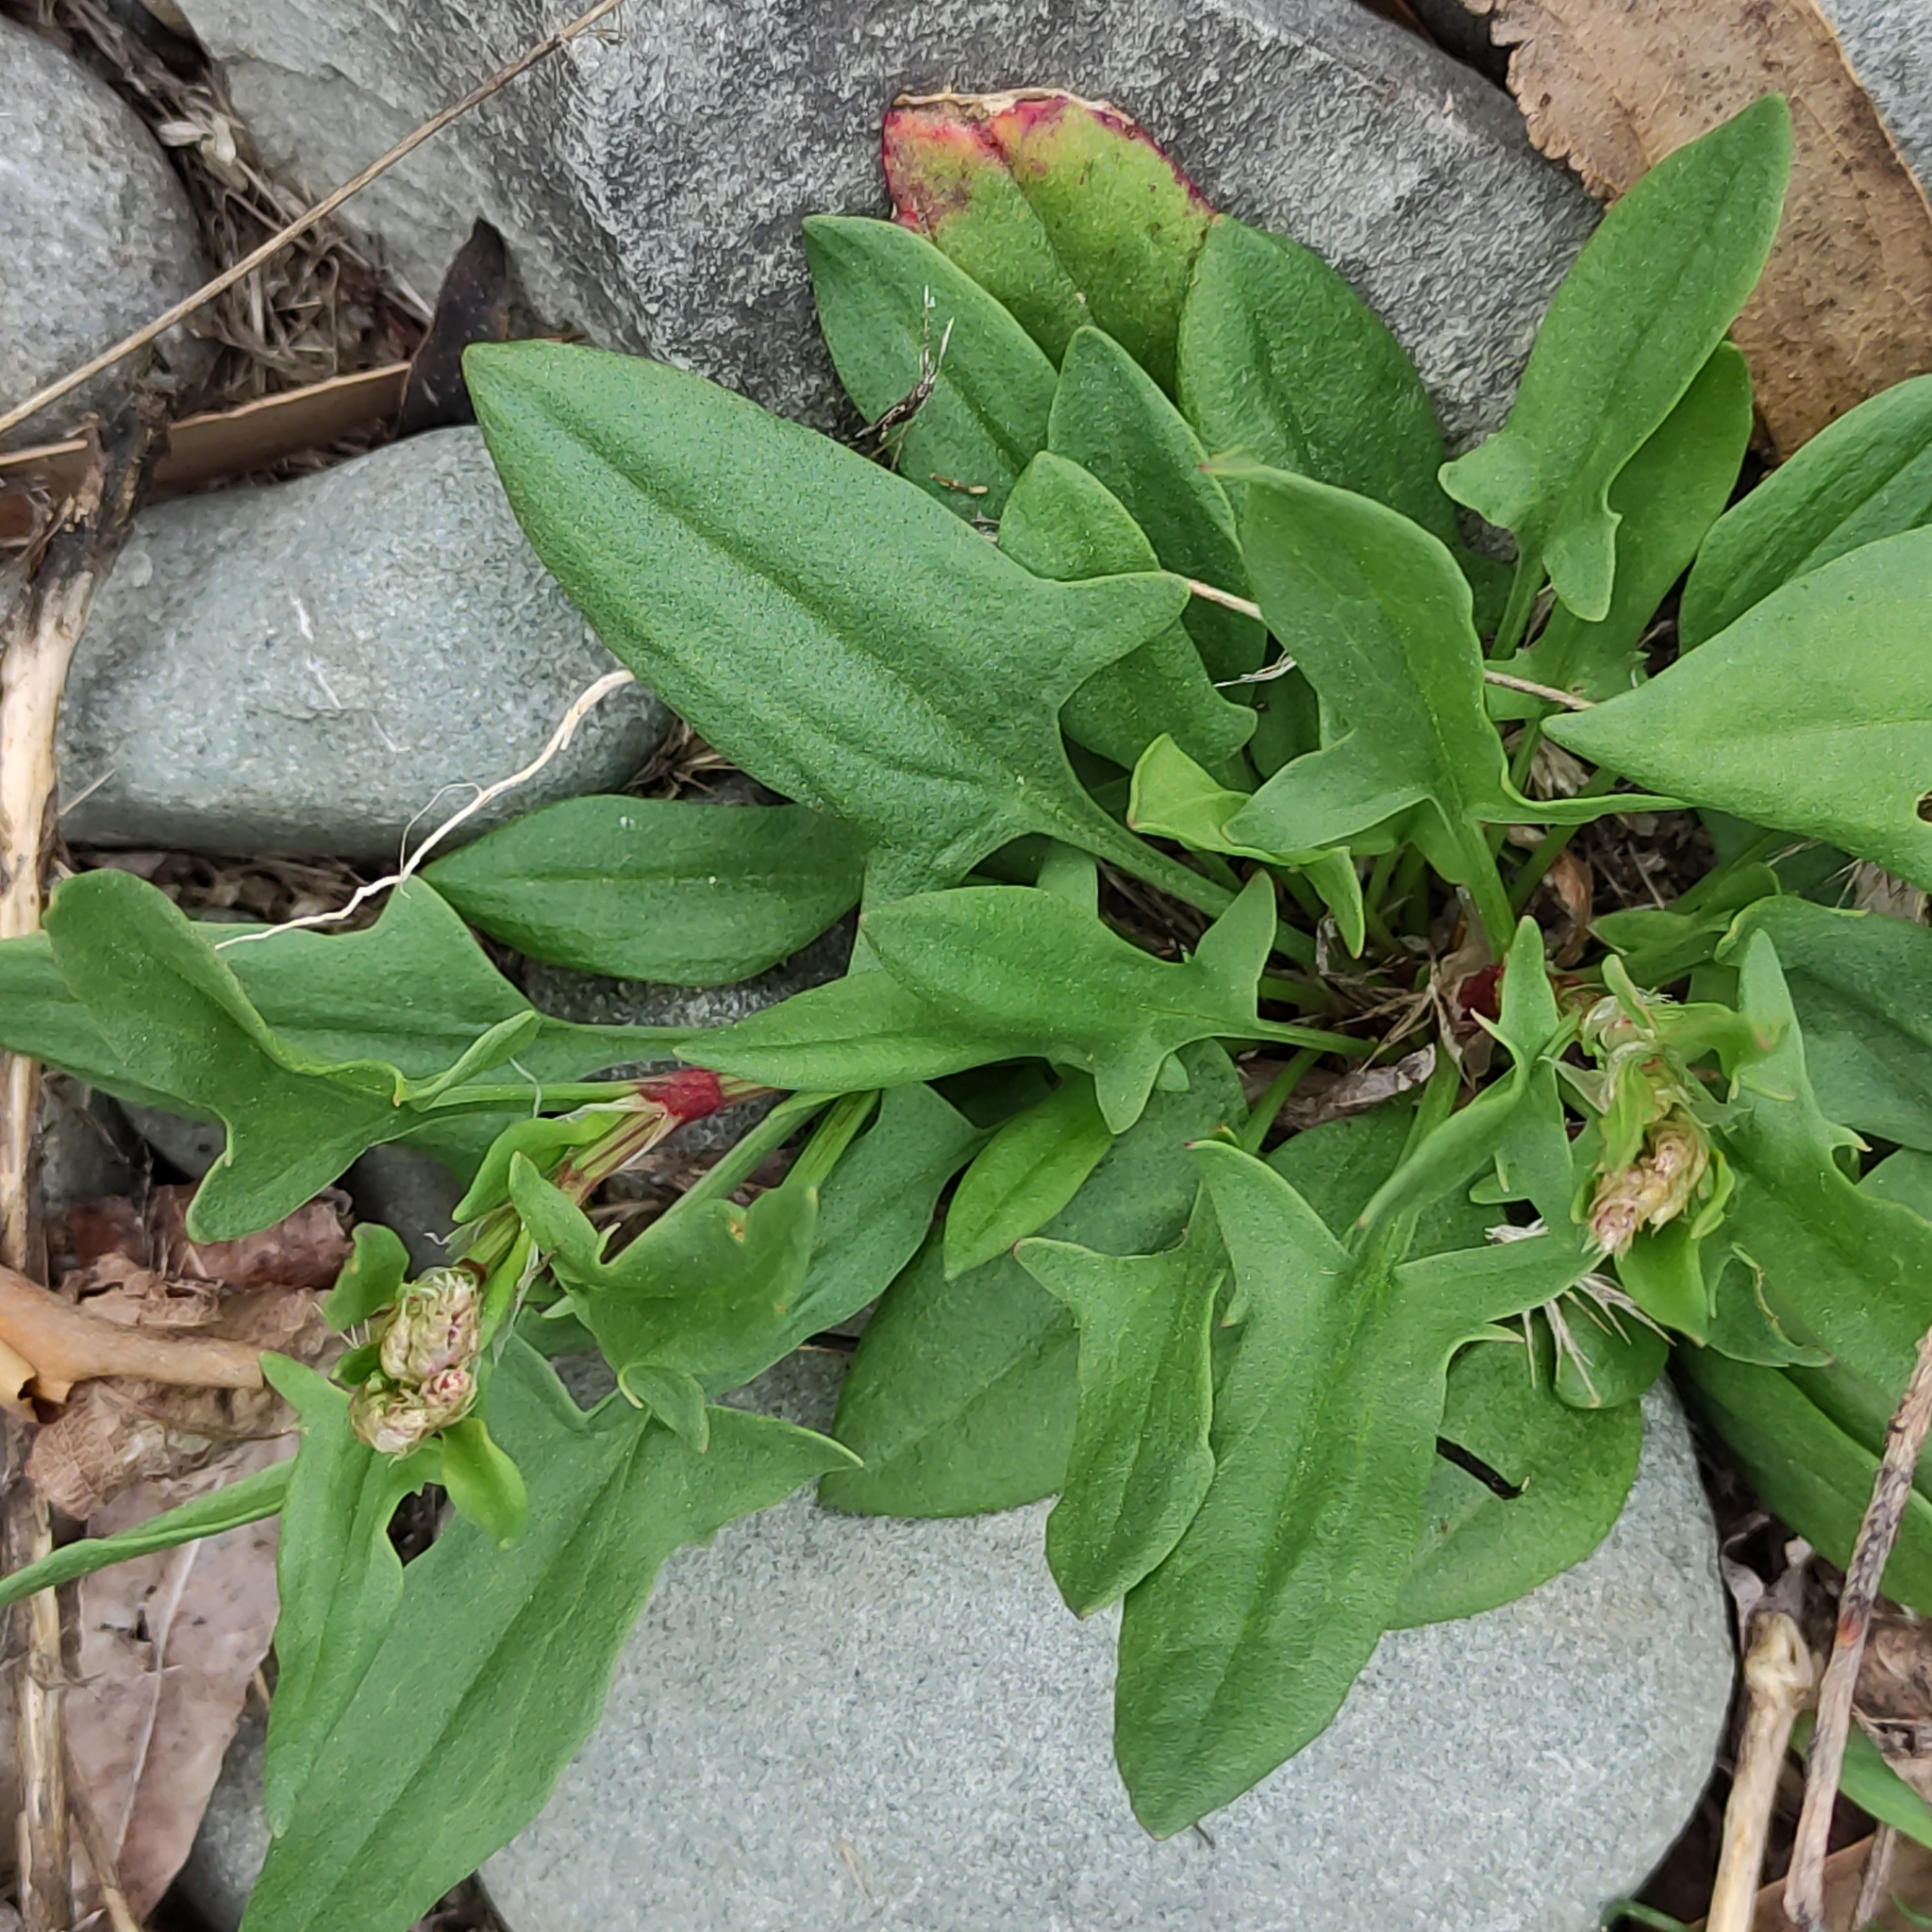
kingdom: Plantae
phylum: Tracheophyta
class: Magnoliopsida
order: Caryophyllales
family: Polygonaceae
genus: Rumex
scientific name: Rumex acetosella
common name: Common sheep sorrel
